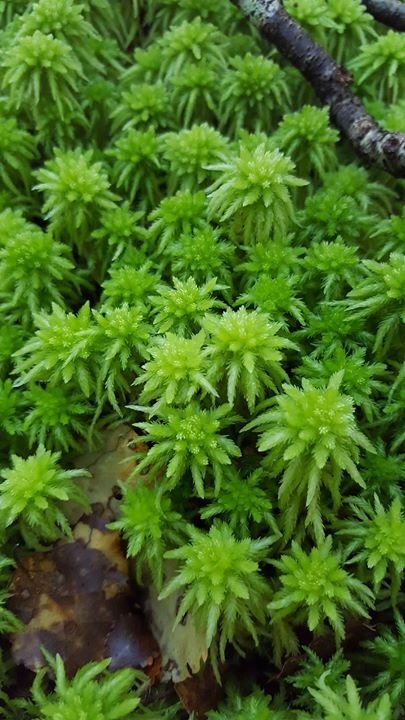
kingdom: Plantae
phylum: Bryophyta
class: Sphagnopsida
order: Sphagnales
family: Sphagnaceae
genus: Sphagnum
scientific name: Sphagnum cristatum
